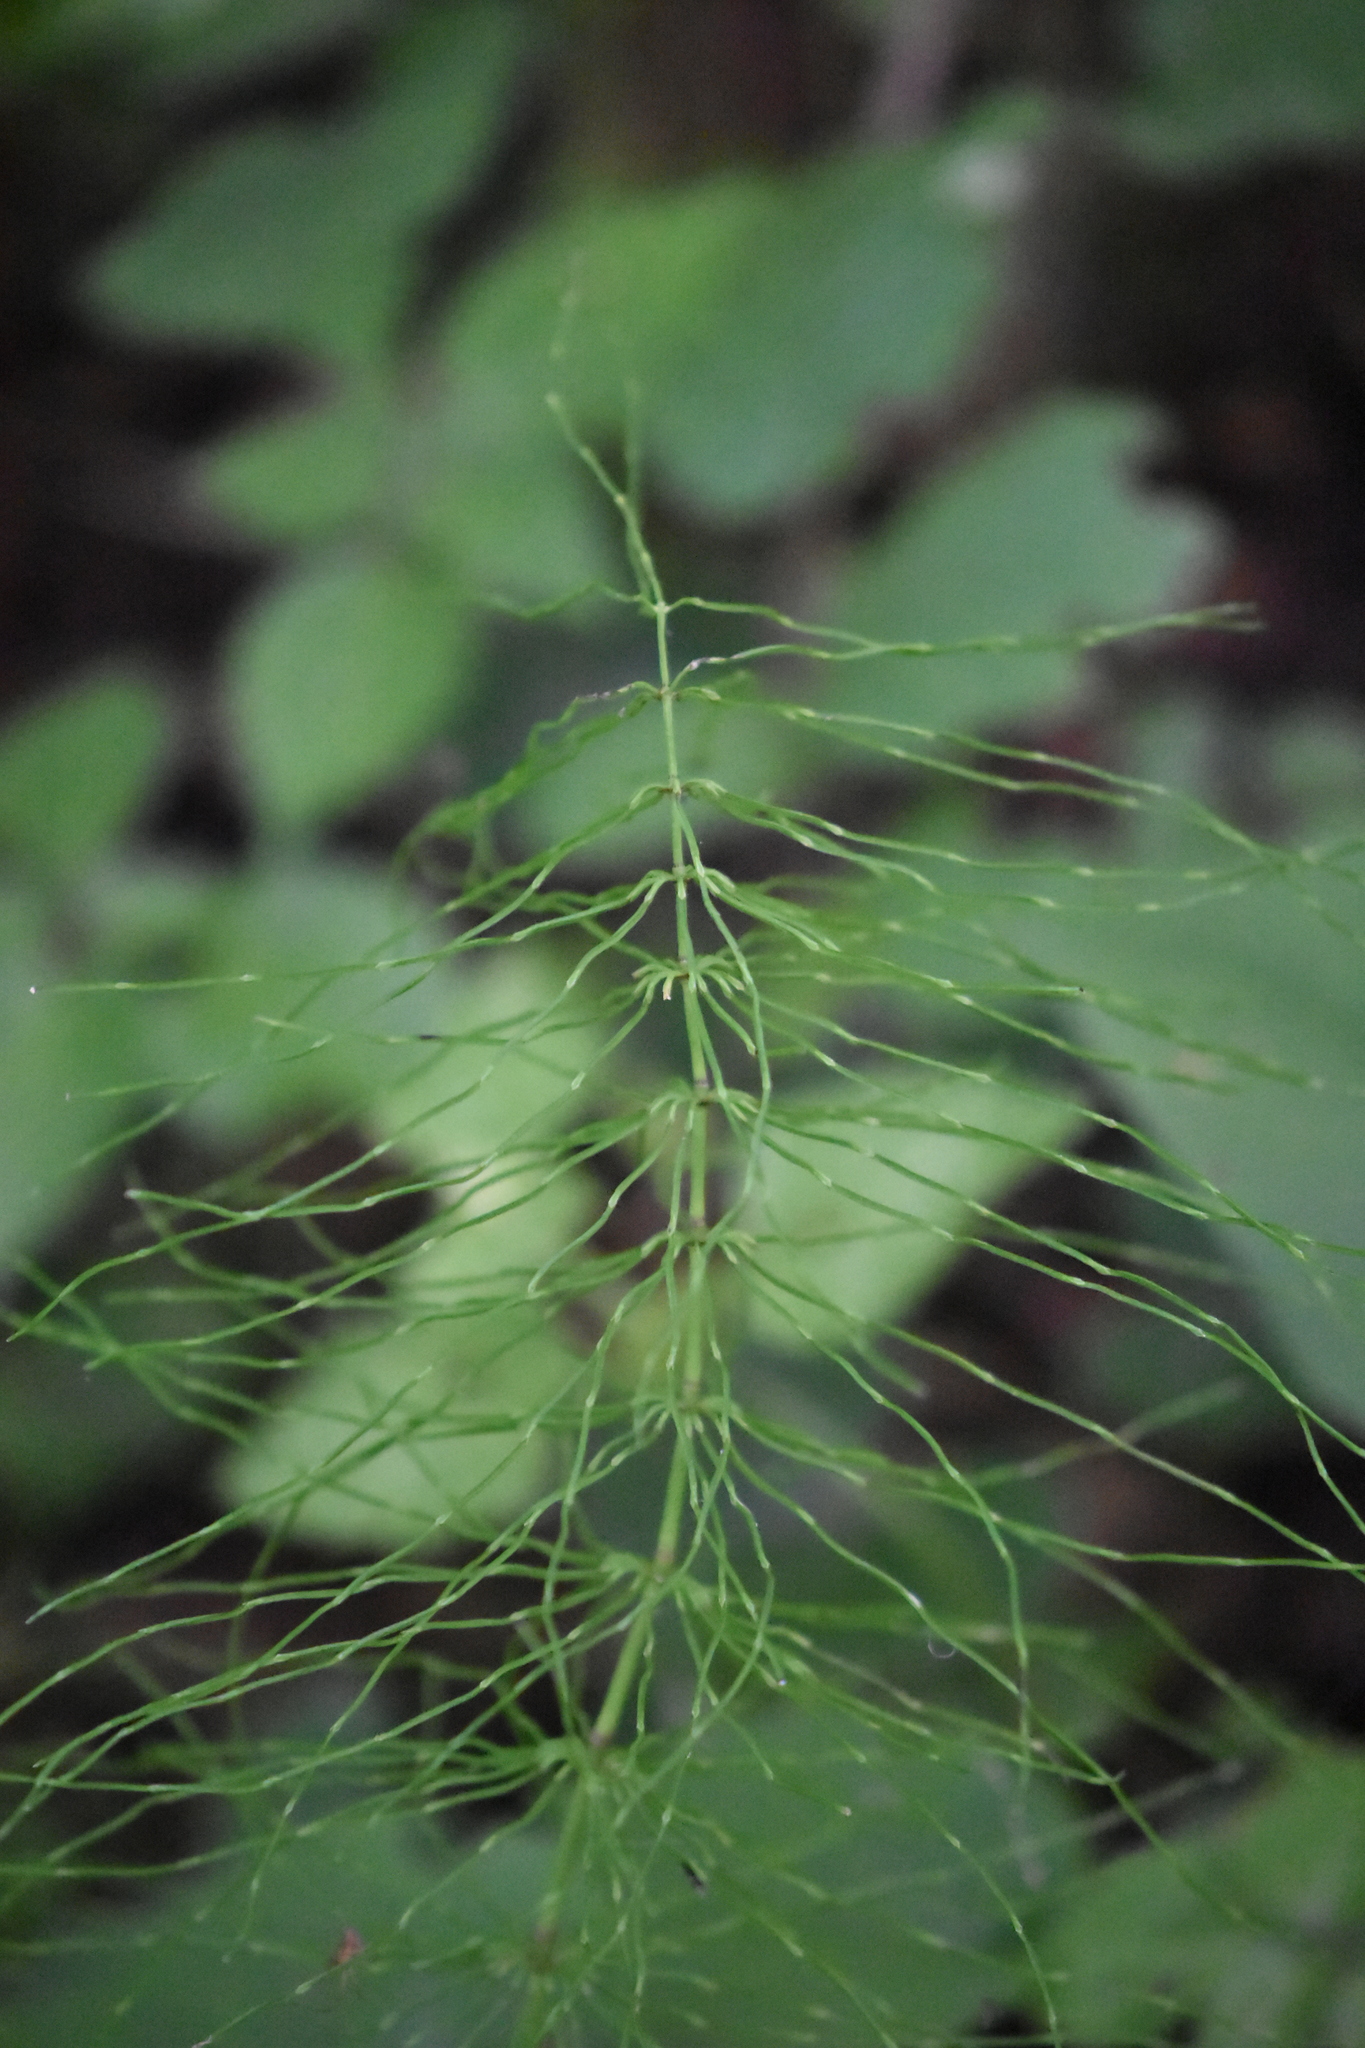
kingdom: Plantae
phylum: Tracheophyta
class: Polypodiopsida
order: Equisetales
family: Equisetaceae
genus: Equisetum
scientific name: Equisetum pratense
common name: Meadow horsetail
